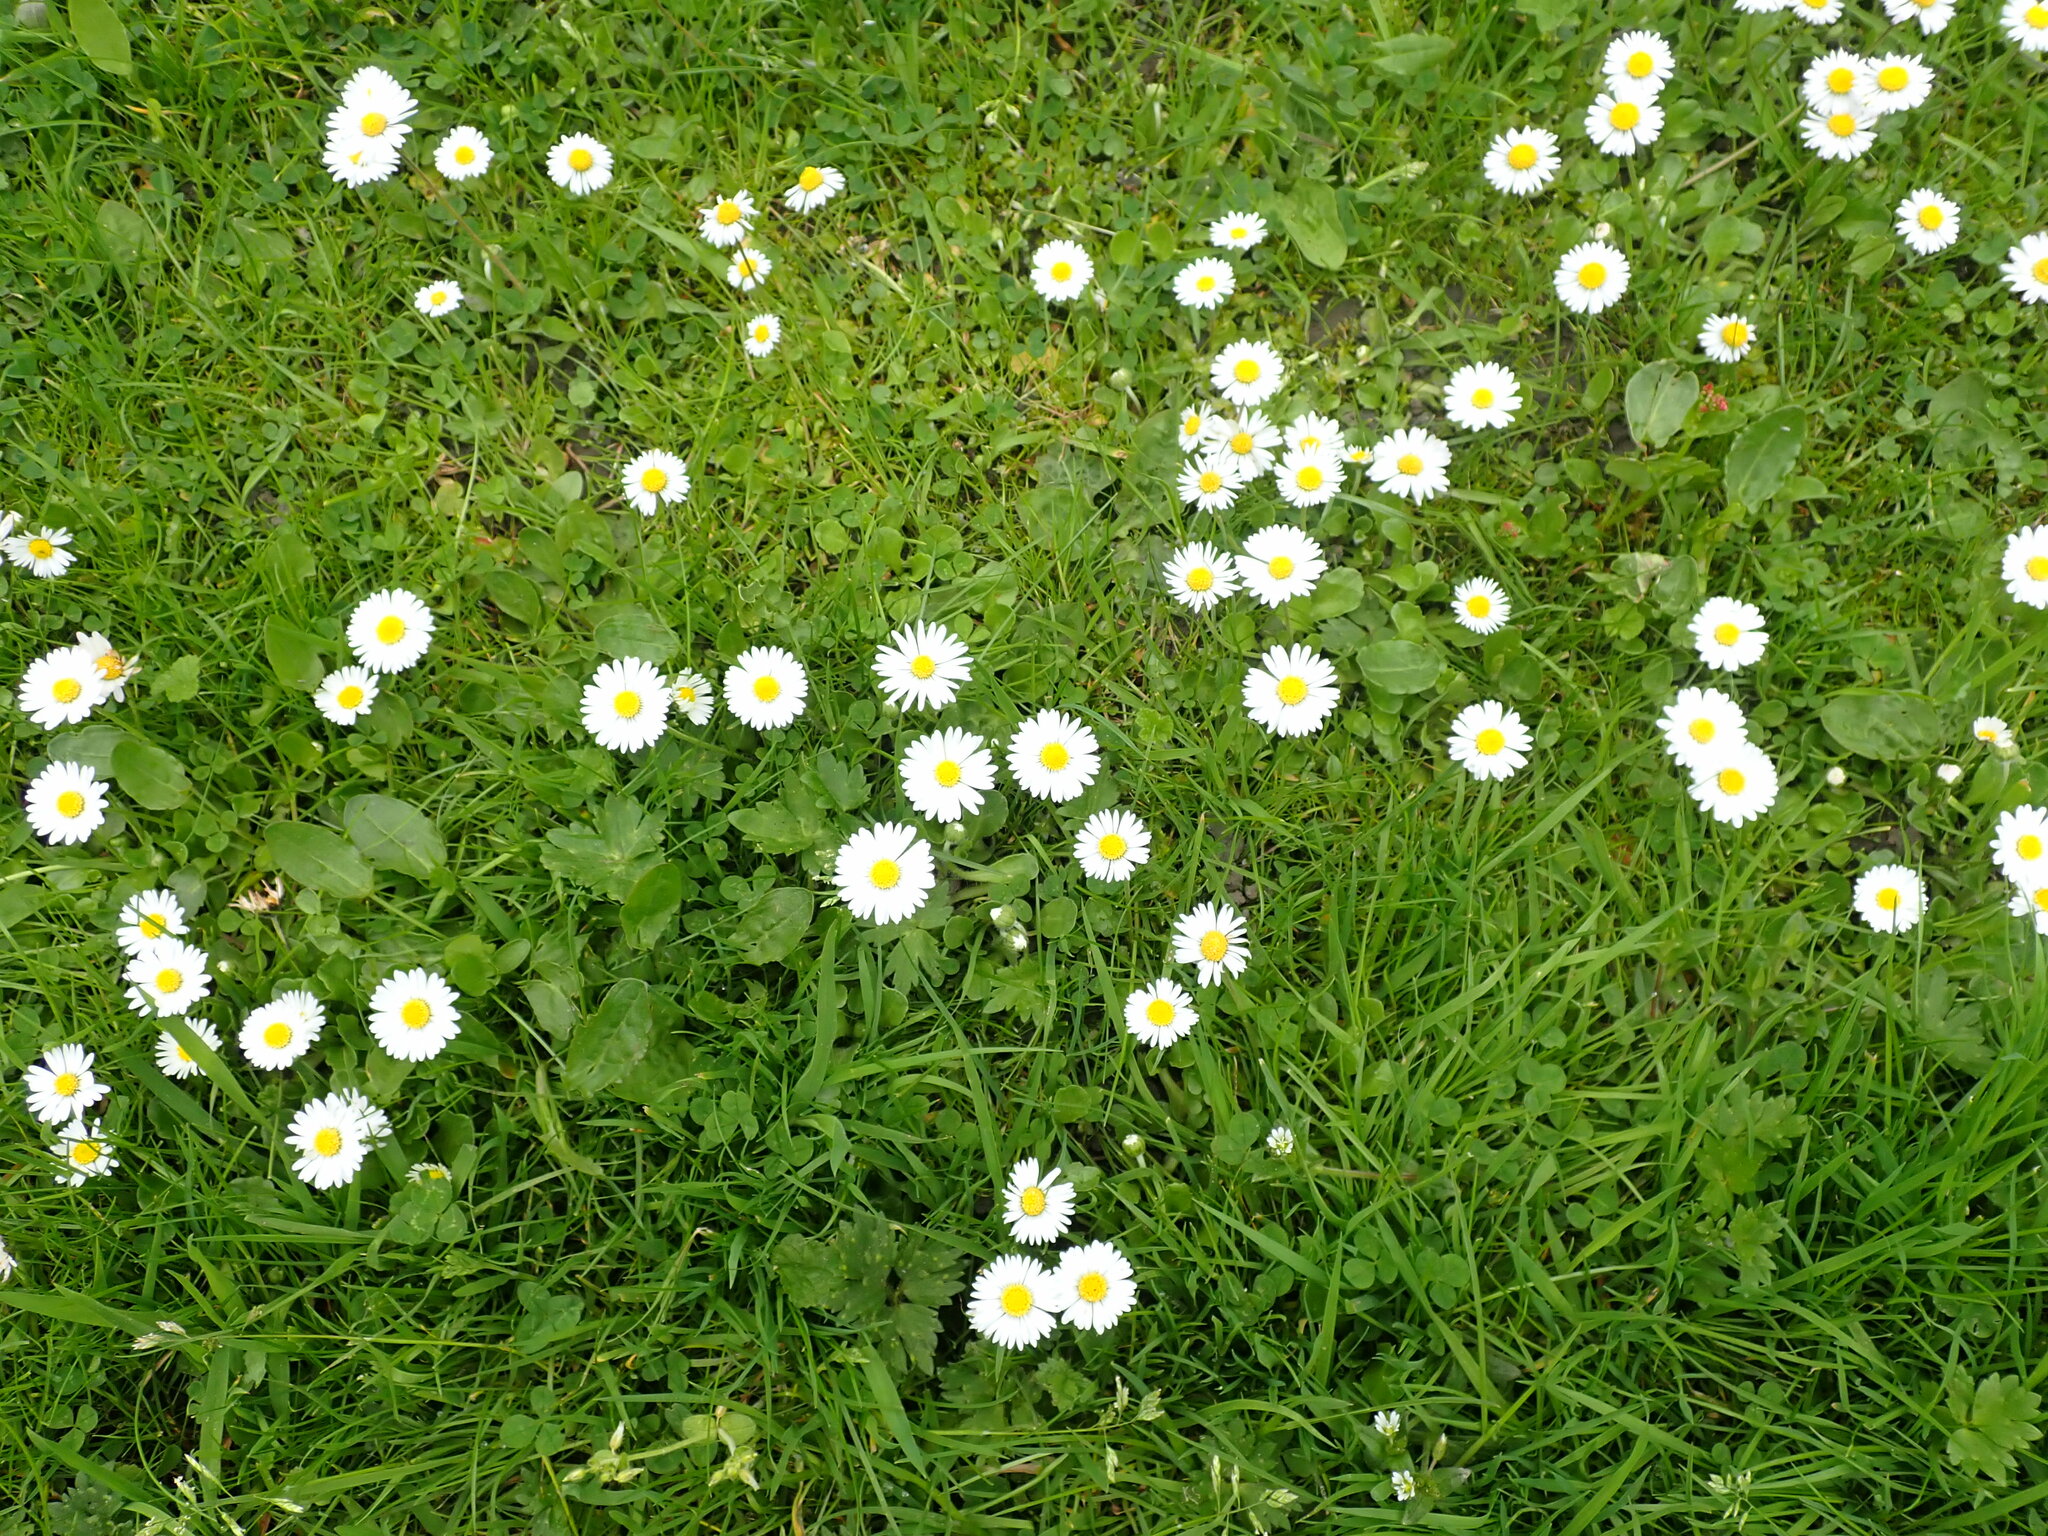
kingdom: Plantae
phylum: Tracheophyta
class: Magnoliopsida
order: Asterales
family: Asteraceae
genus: Bellis
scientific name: Bellis perennis
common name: Lawndaisy
